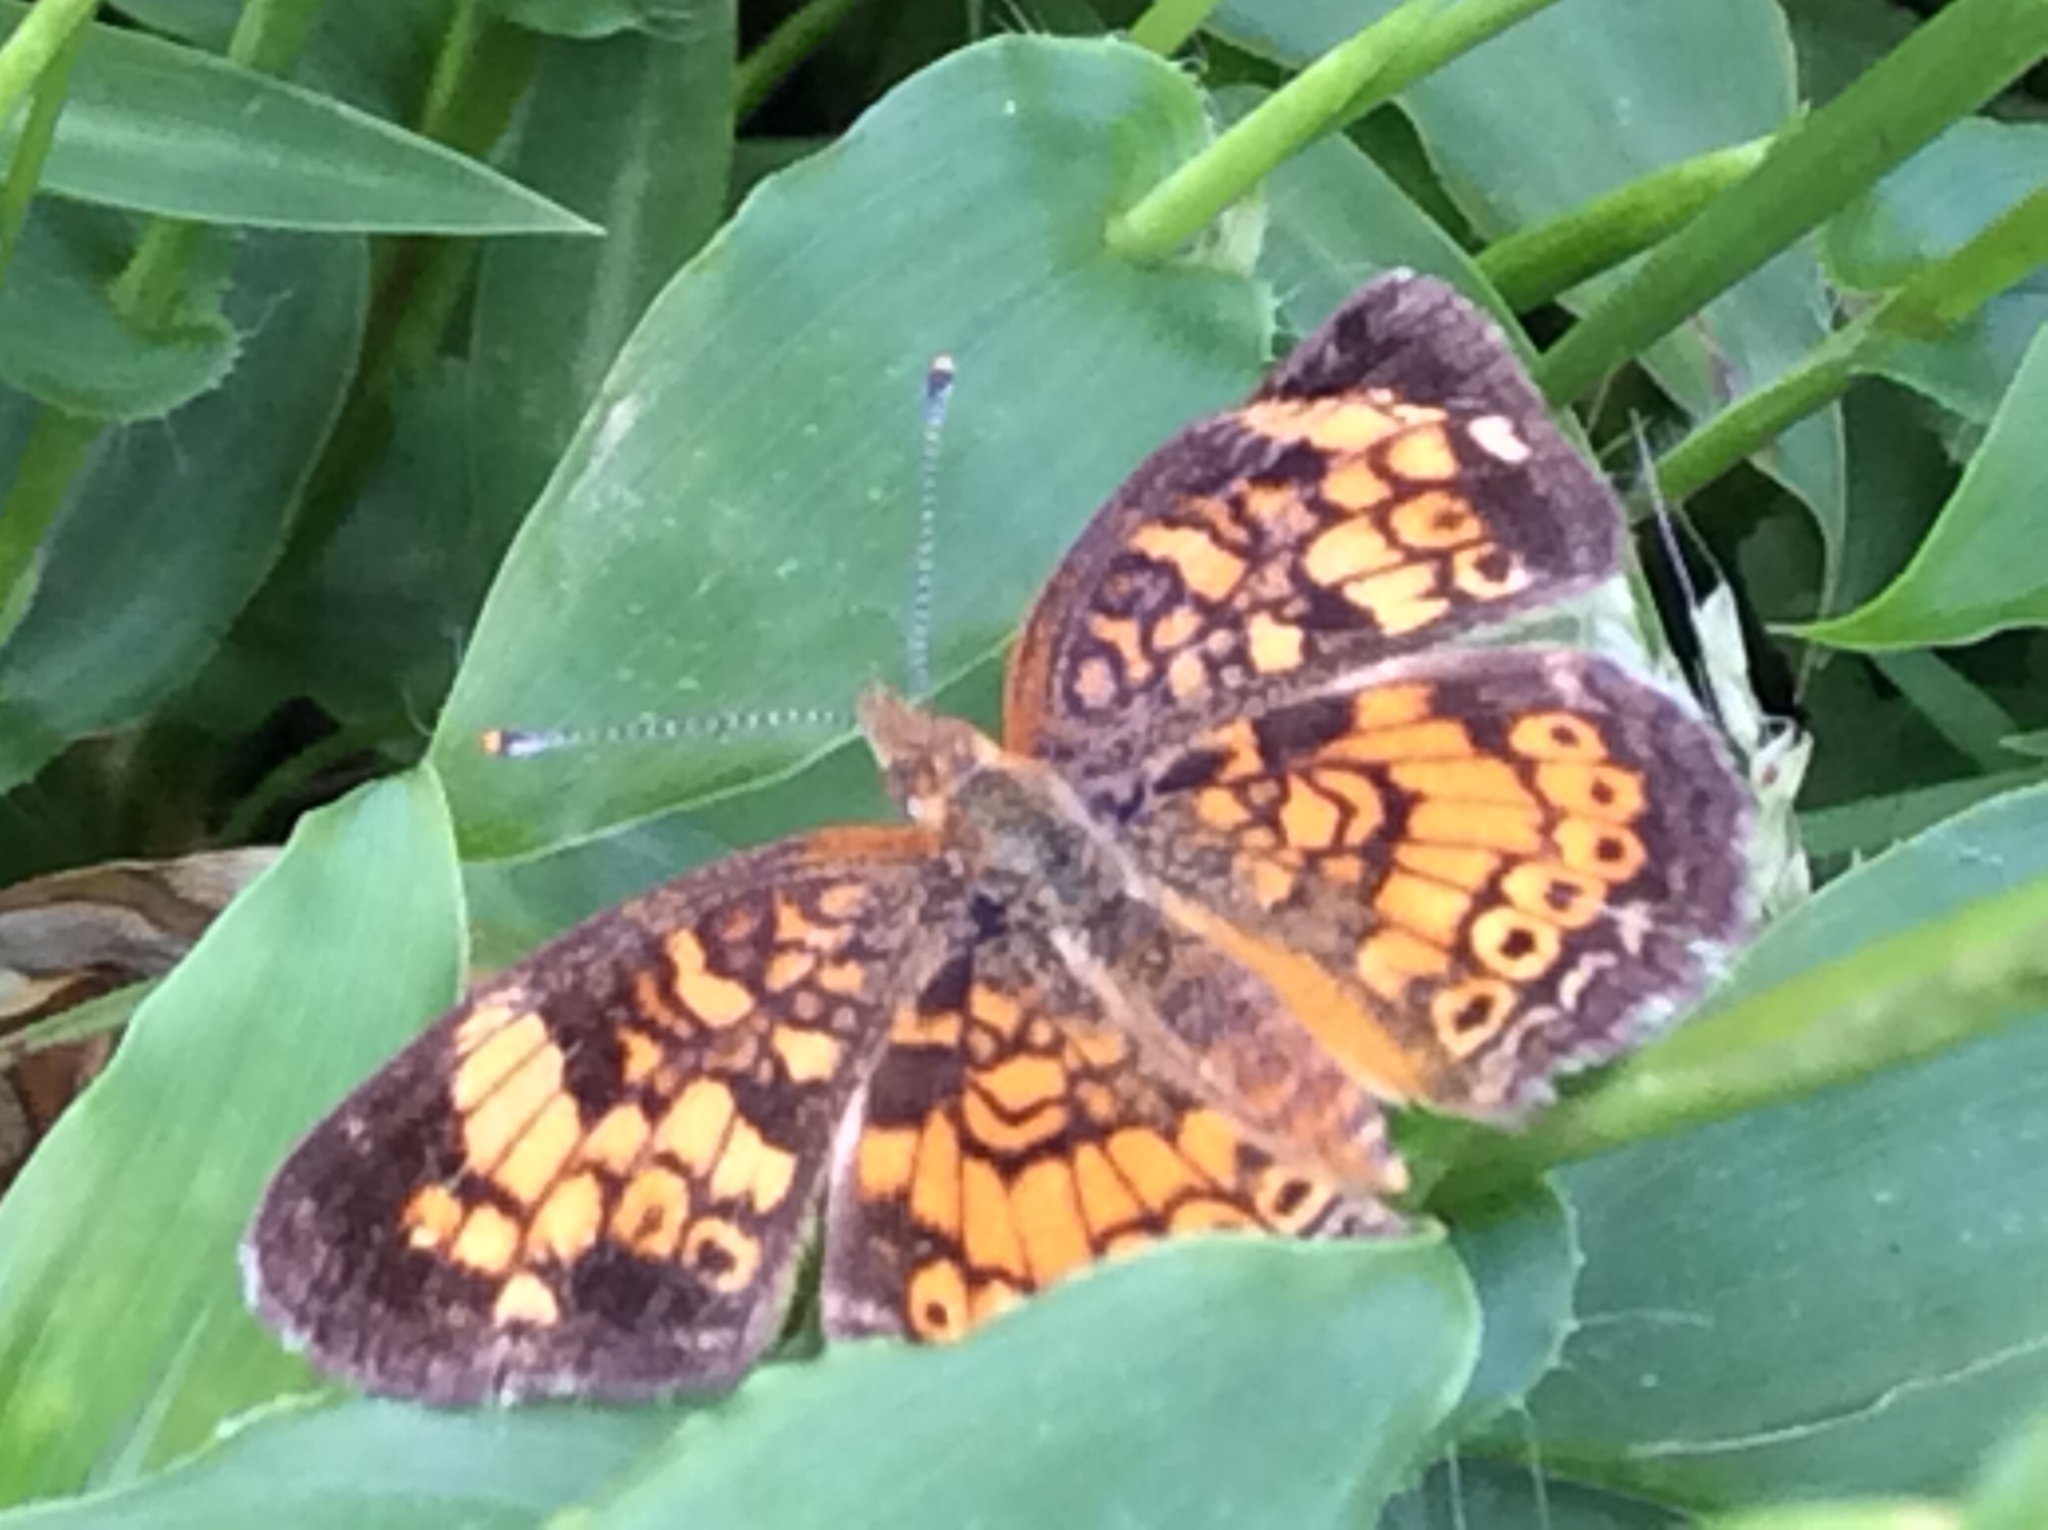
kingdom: Animalia
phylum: Arthropoda
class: Insecta
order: Lepidoptera
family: Nymphalidae
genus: Phyciodes
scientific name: Phyciodes tharos
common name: Pearl crescent
